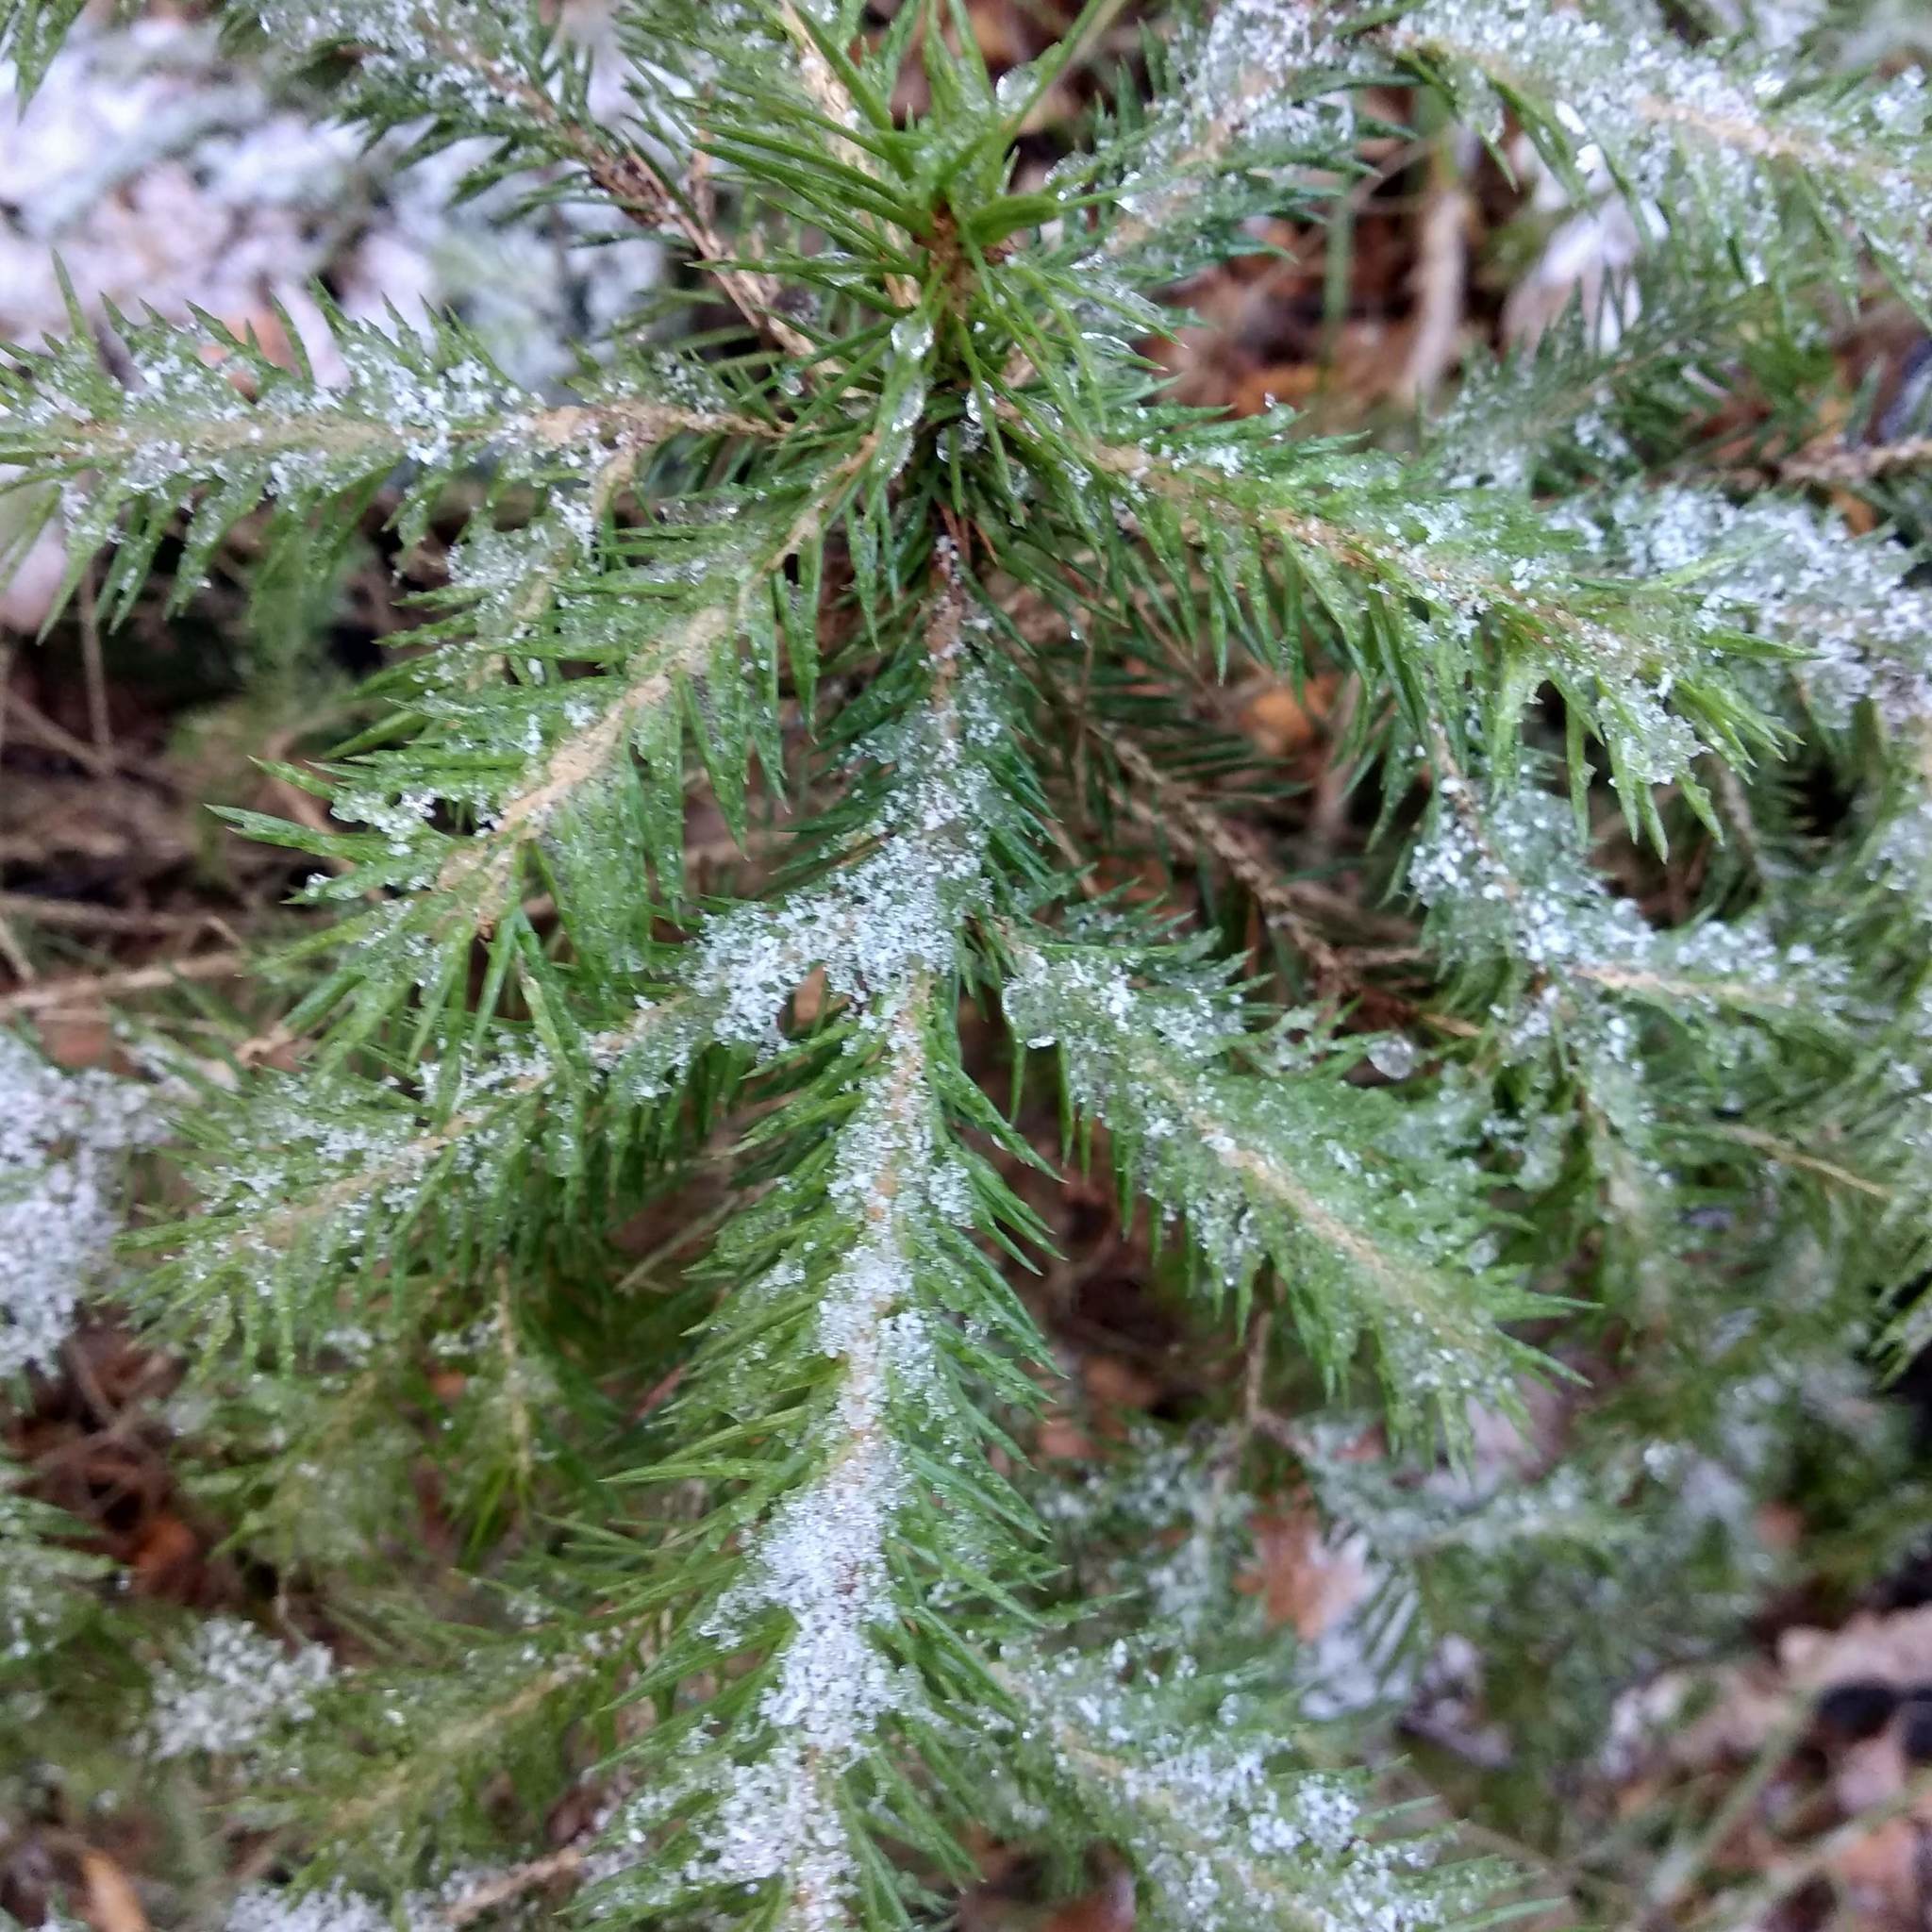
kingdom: Plantae
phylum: Tracheophyta
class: Pinopsida
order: Pinales
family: Pinaceae
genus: Picea
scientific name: Picea abies
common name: Norway spruce
